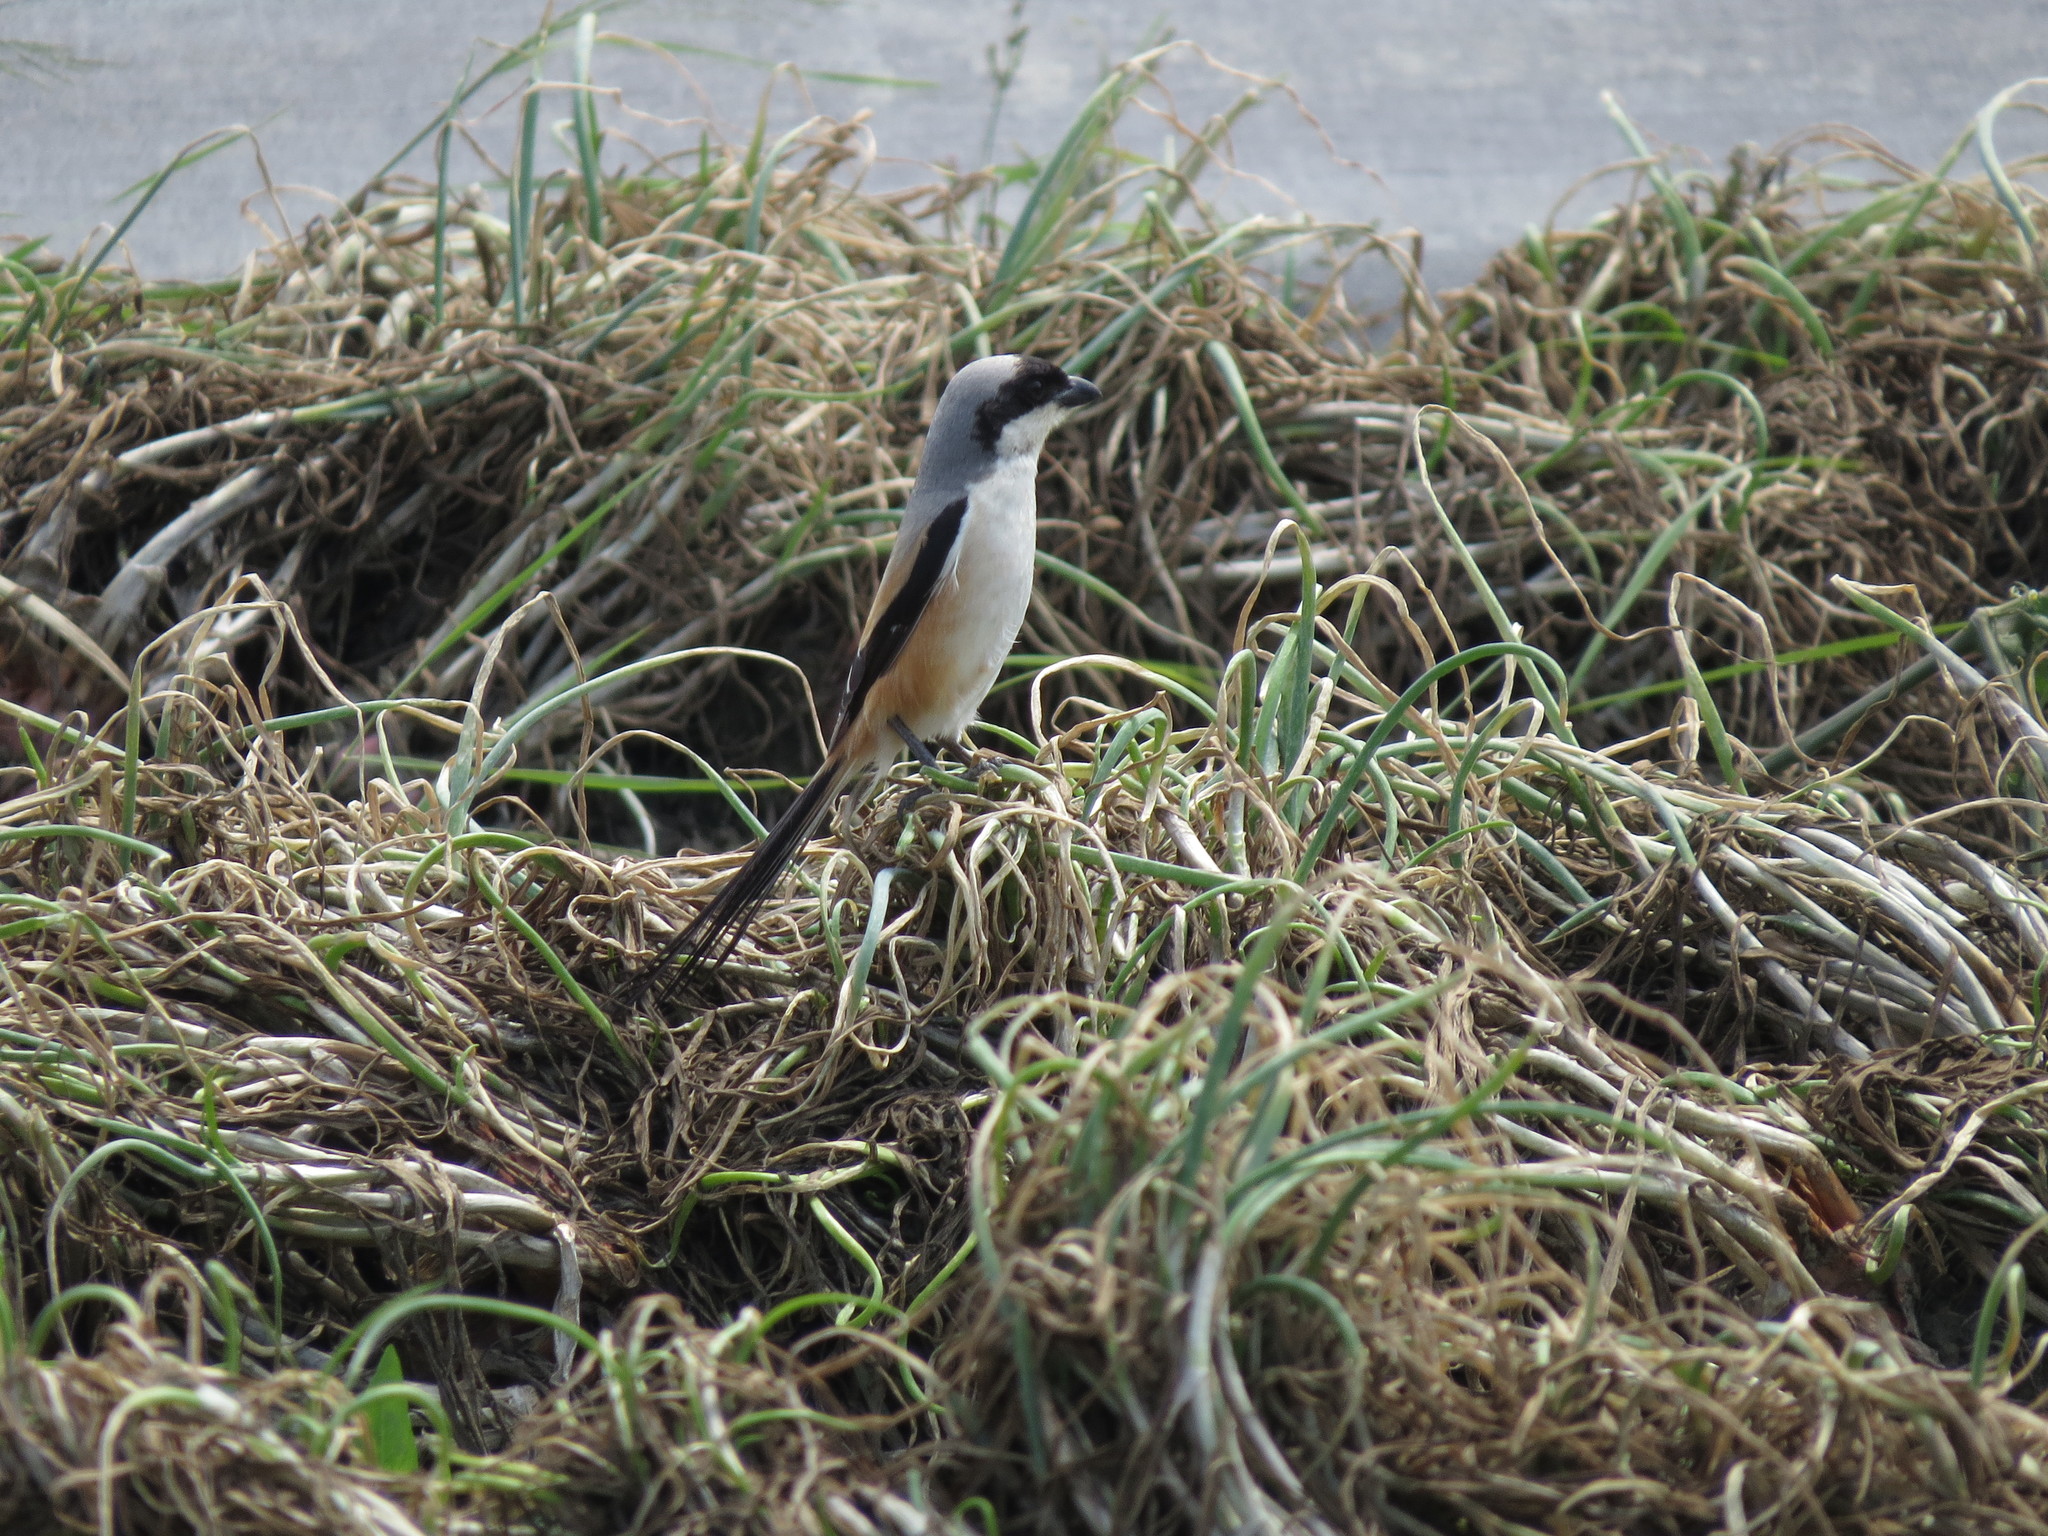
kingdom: Animalia
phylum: Chordata
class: Aves
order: Passeriformes
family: Laniidae
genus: Lanius
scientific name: Lanius schach
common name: Long-tailed shrike
